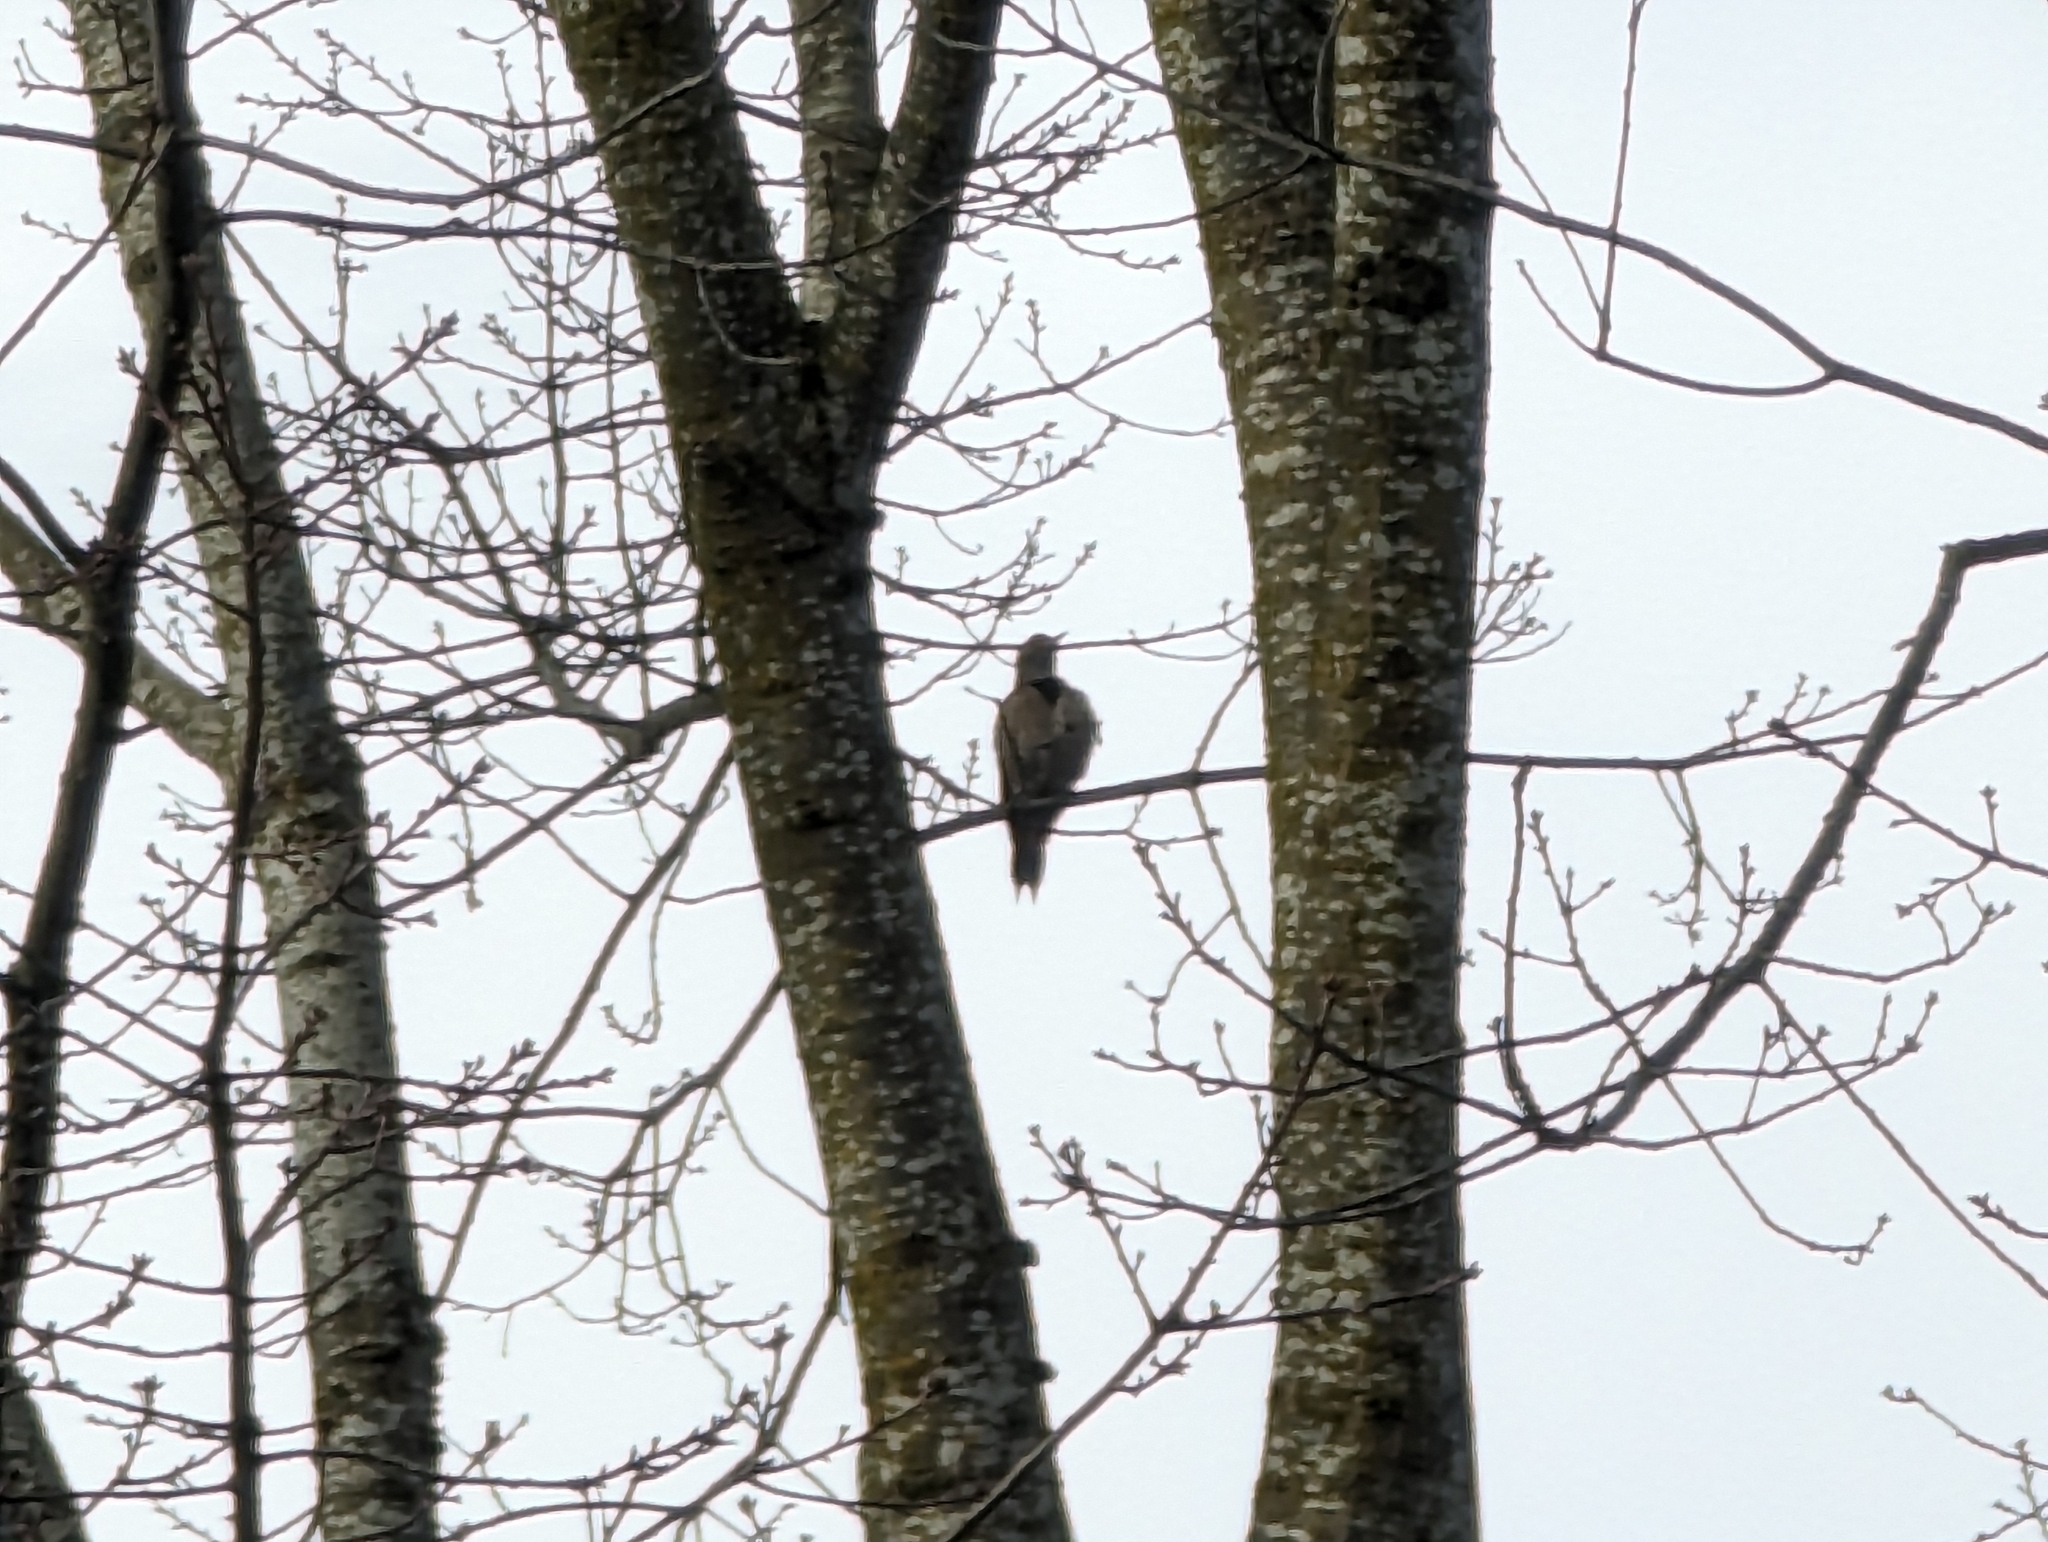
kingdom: Animalia
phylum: Chordata
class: Aves
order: Piciformes
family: Picidae
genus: Colaptes
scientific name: Colaptes auratus
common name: Northern flicker
